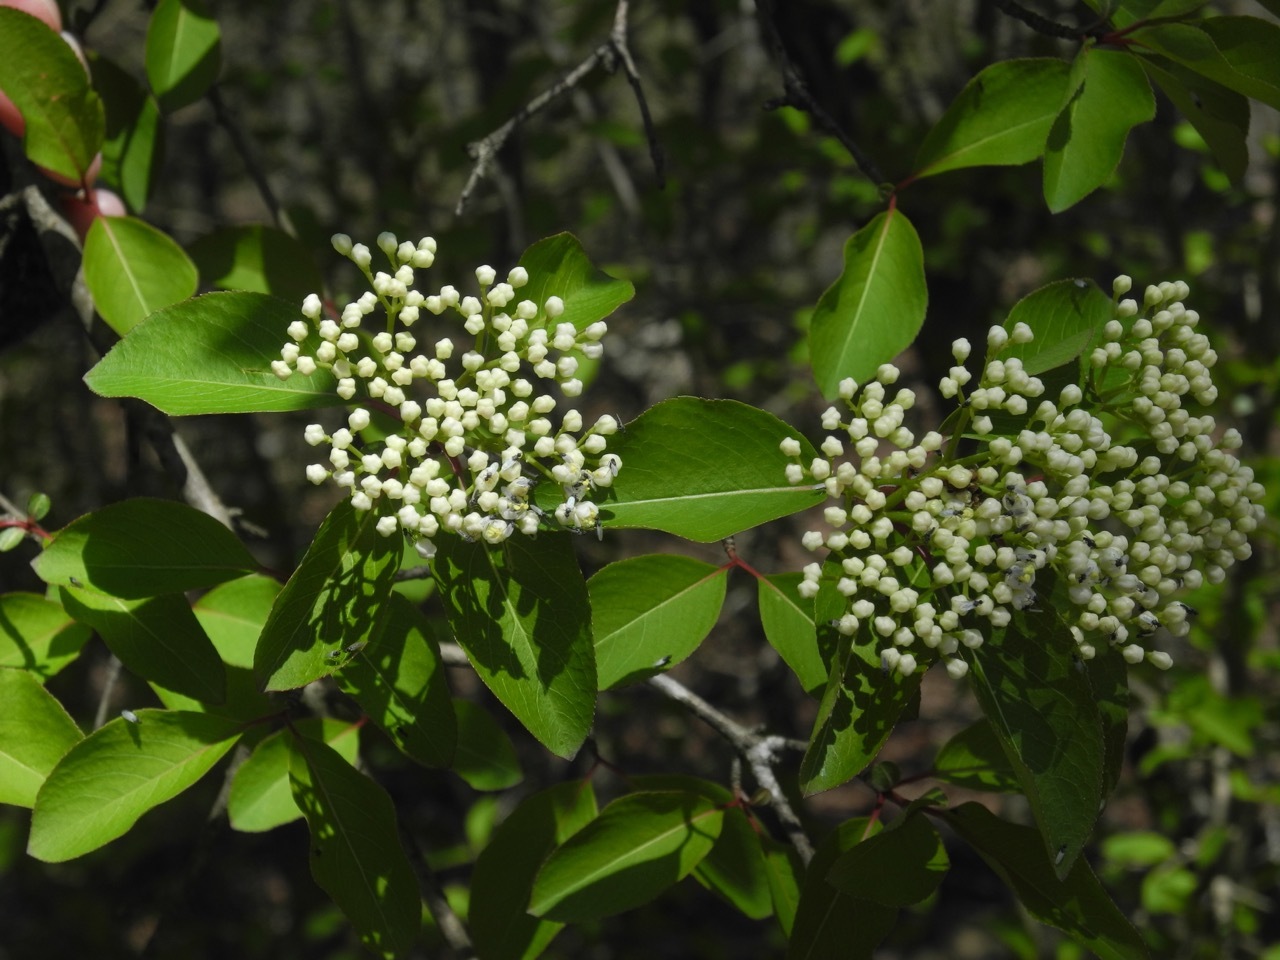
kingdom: Plantae
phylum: Tracheophyta
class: Magnoliopsida
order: Dipsacales
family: Viburnaceae
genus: Viburnum
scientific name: Viburnum prunifolium
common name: Black haw
